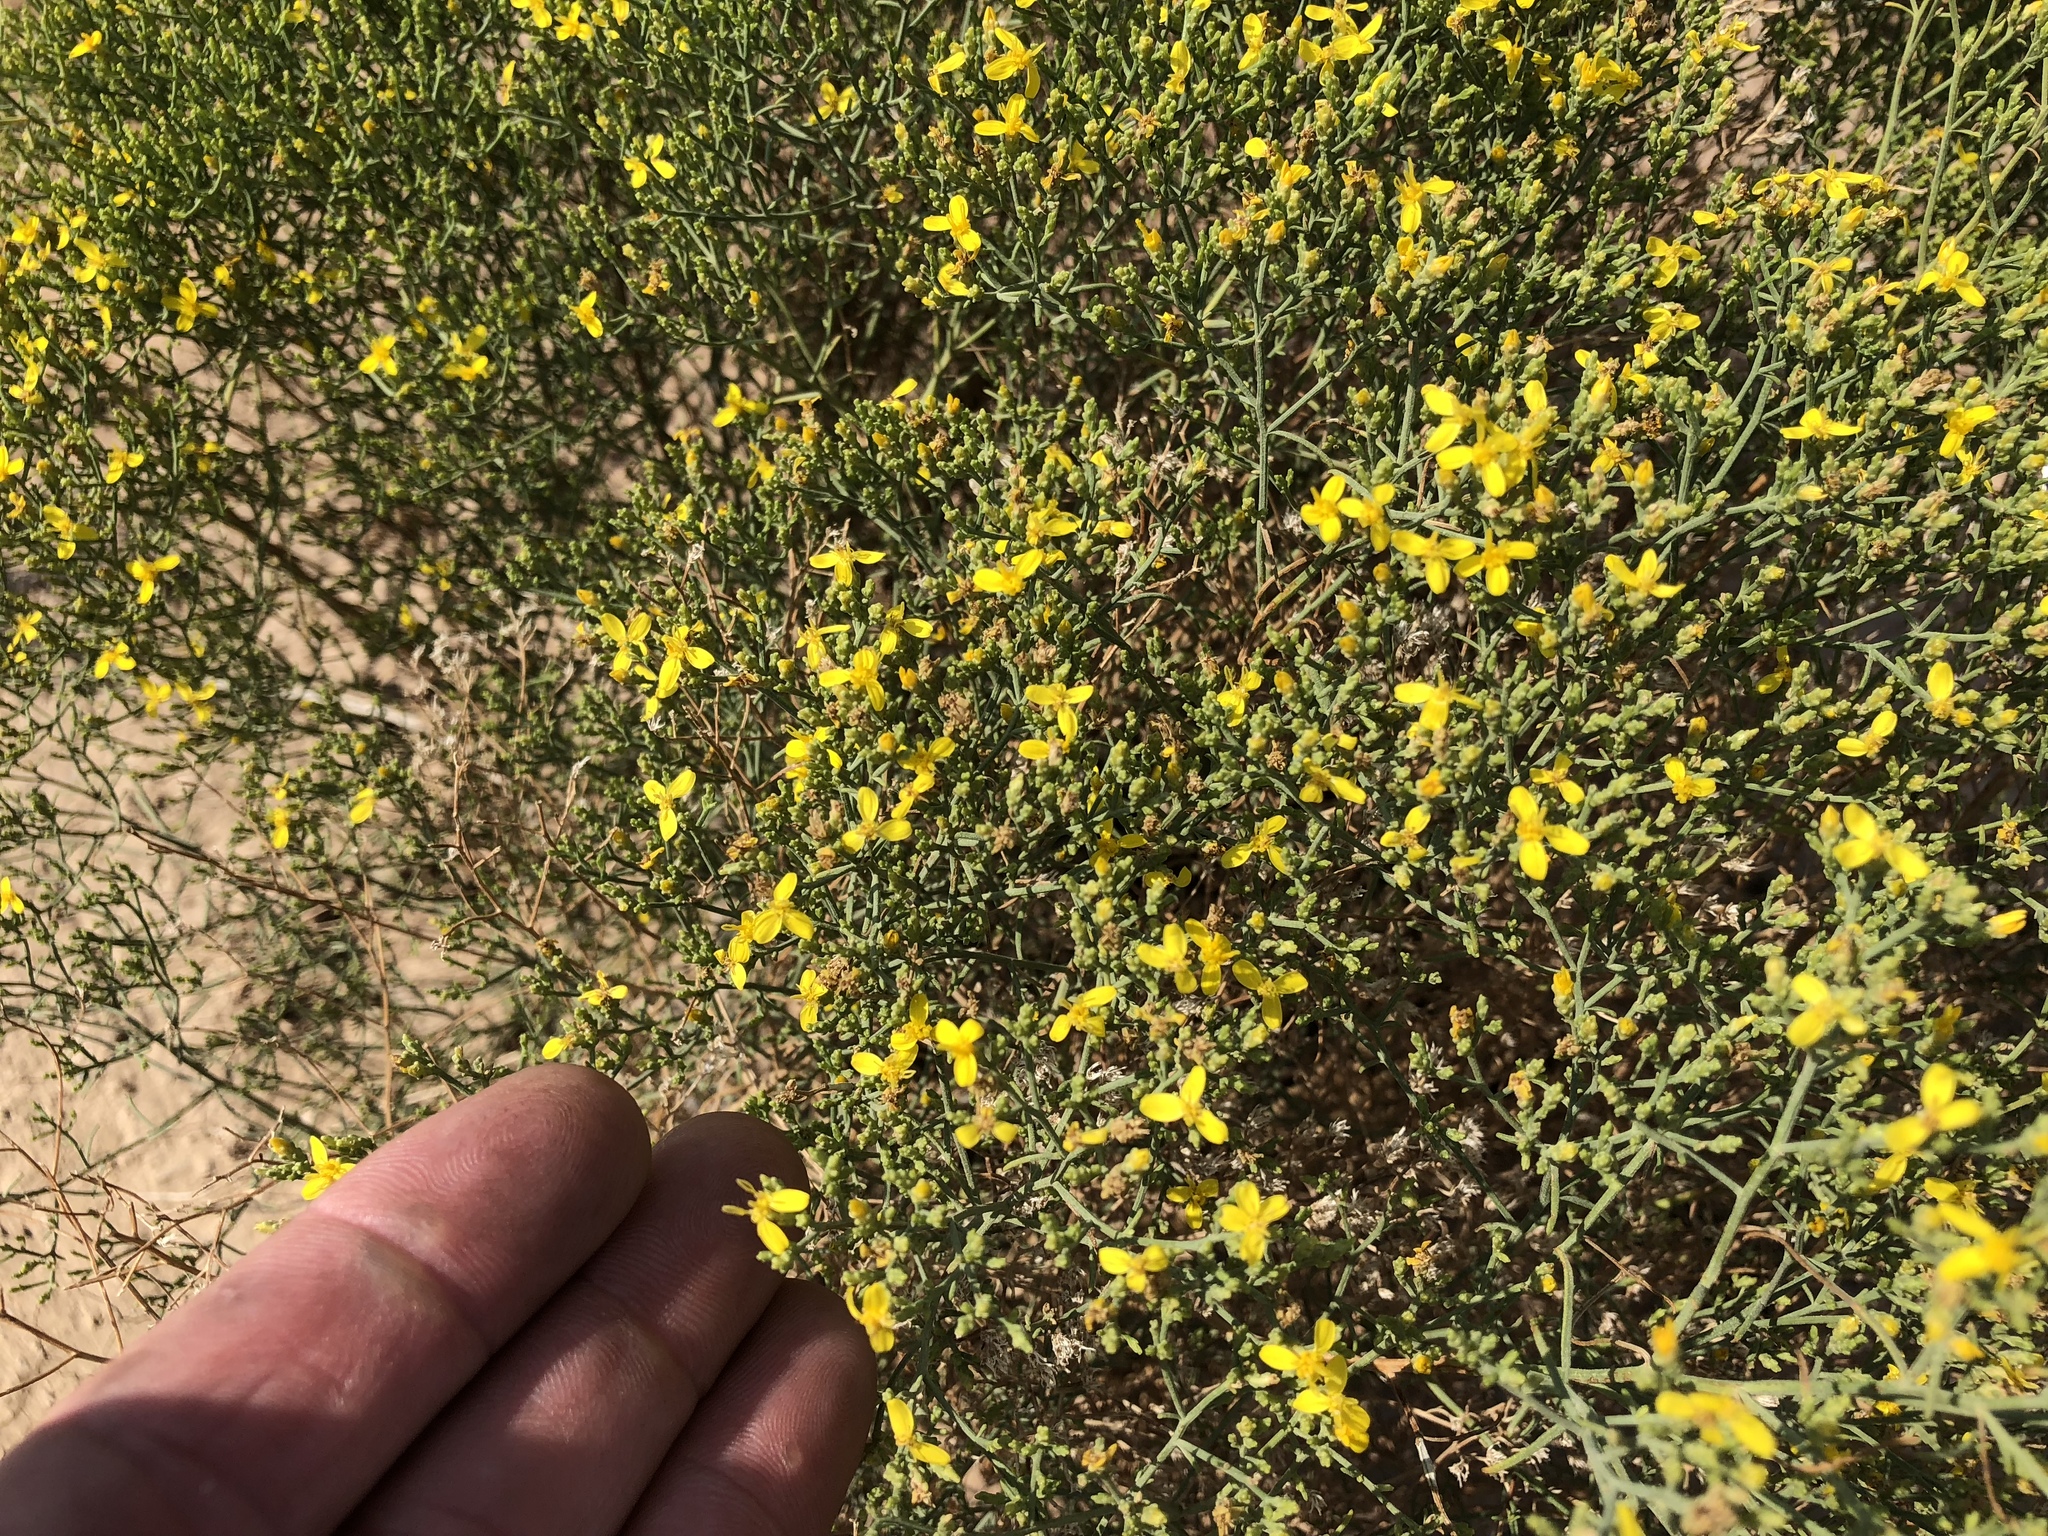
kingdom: Plantae
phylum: Tracheophyta
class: Magnoliopsida
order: Asterales
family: Asteraceae
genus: Gutierrezia
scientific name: Gutierrezia sarothrae
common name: Broom snakeweed
